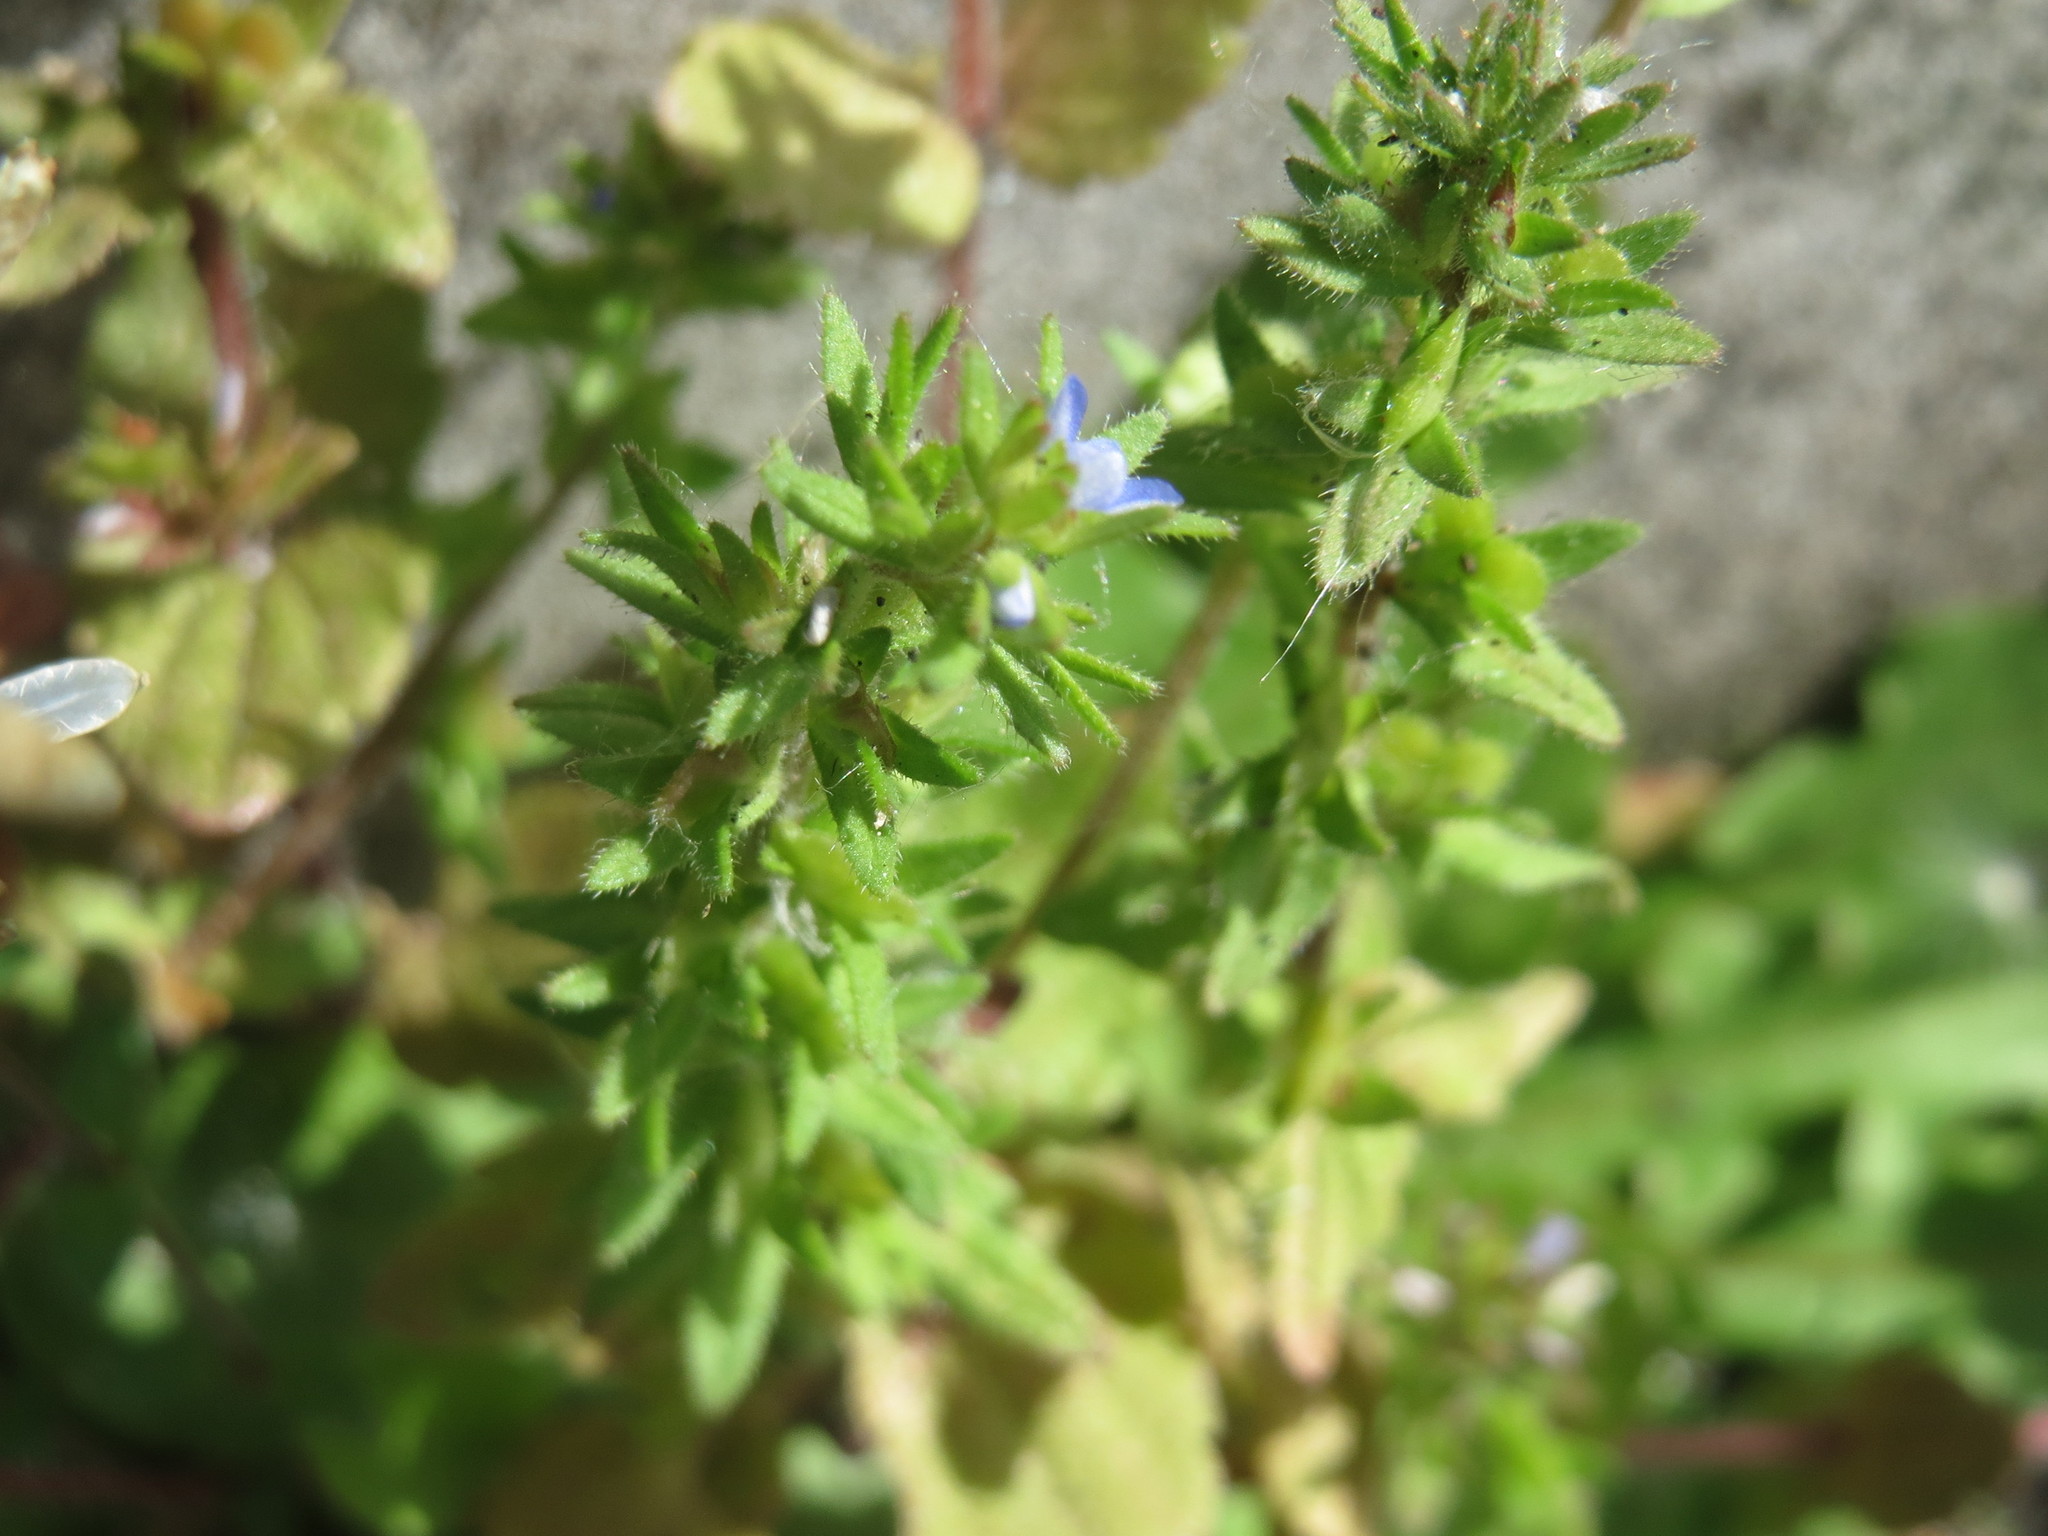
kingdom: Plantae
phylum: Tracheophyta
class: Magnoliopsida
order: Lamiales
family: Plantaginaceae
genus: Veronica
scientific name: Veronica arvensis
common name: Corn speedwell
